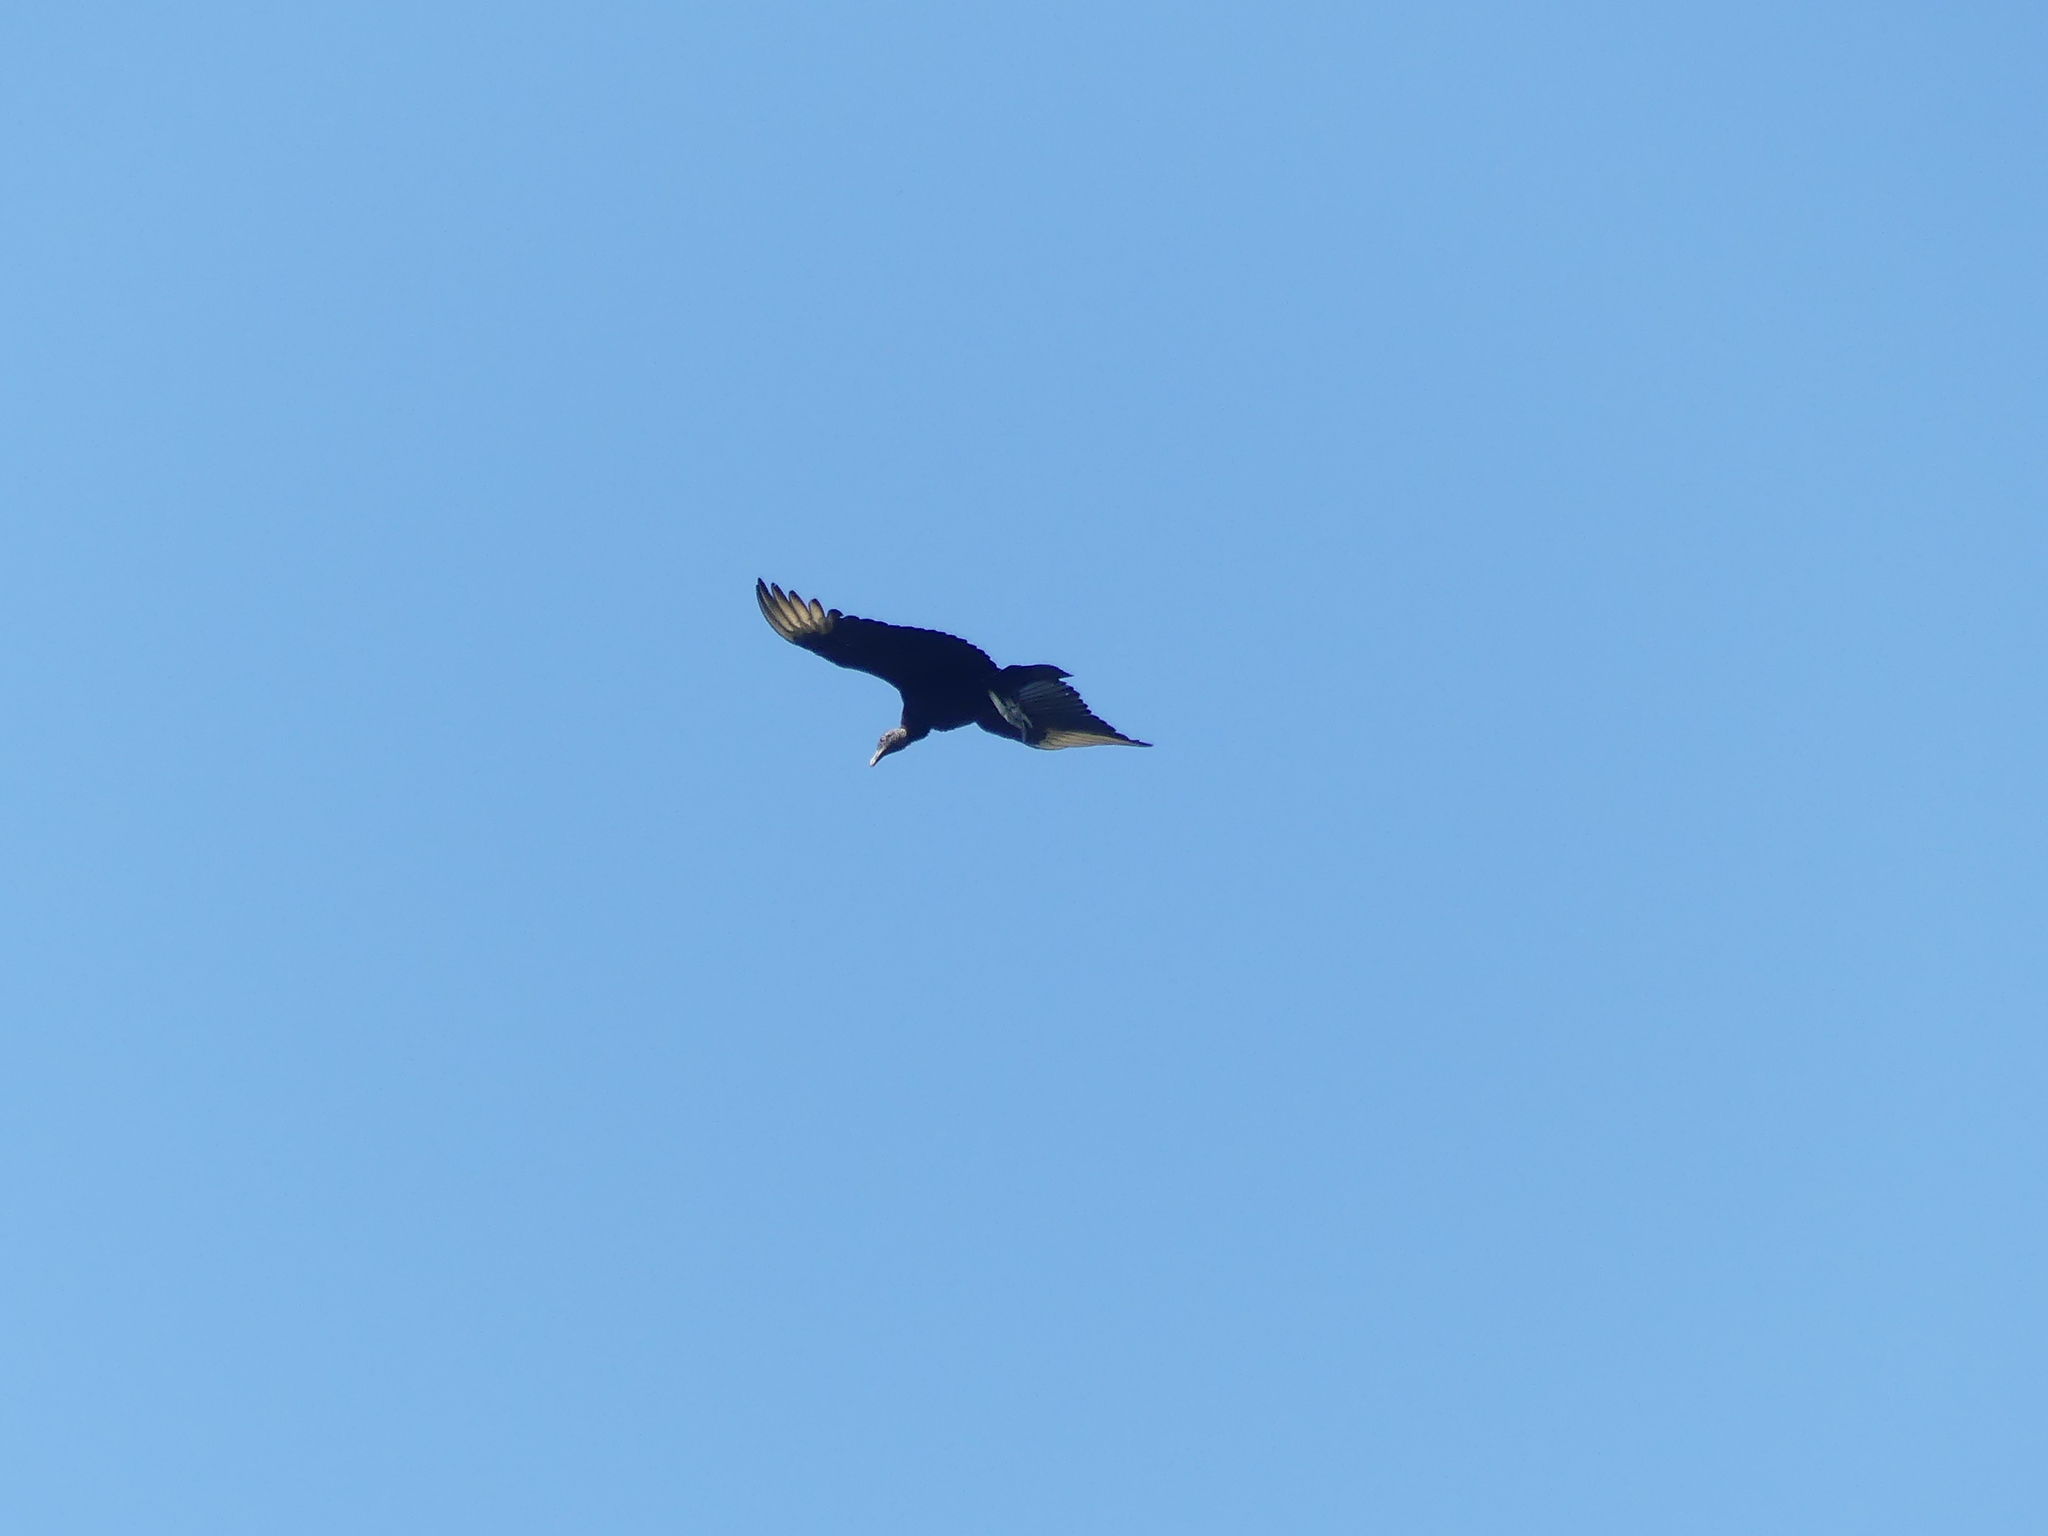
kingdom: Animalia
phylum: Chordata
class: Aves
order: Accipitriformes
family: Cathartidae
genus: Coragyps
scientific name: Coragyps atratus
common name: Black vulture
